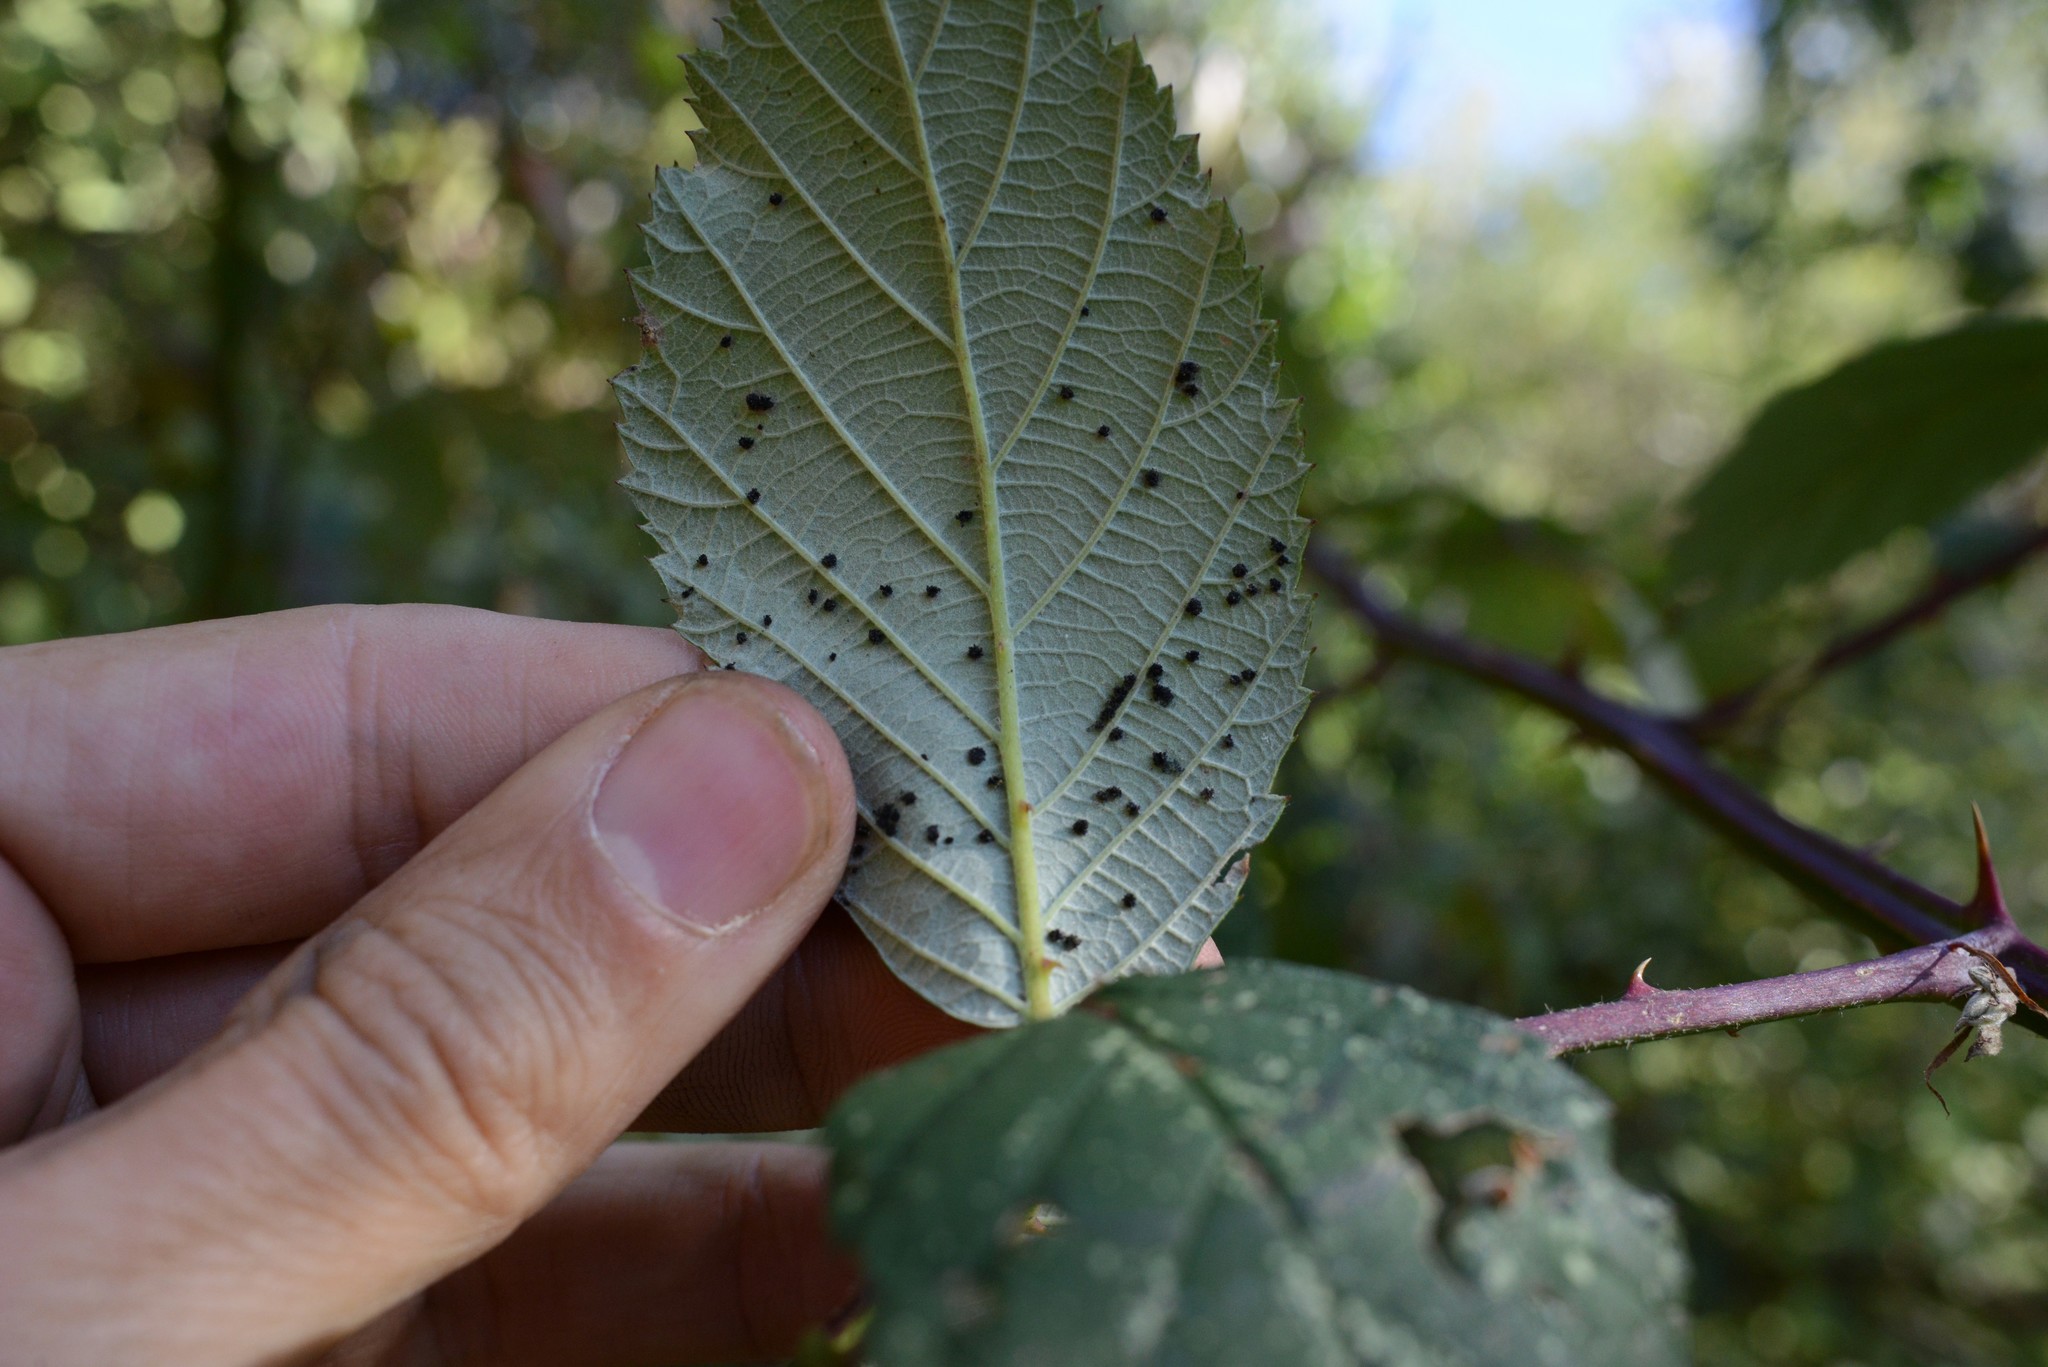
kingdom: Fungi
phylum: Basidiomycota
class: Pucciniomycetes
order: Pucciniales
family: Phragmidiaceae
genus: Phragmidium
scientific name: Phragmidium violaceum
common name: Violet bramble rust
